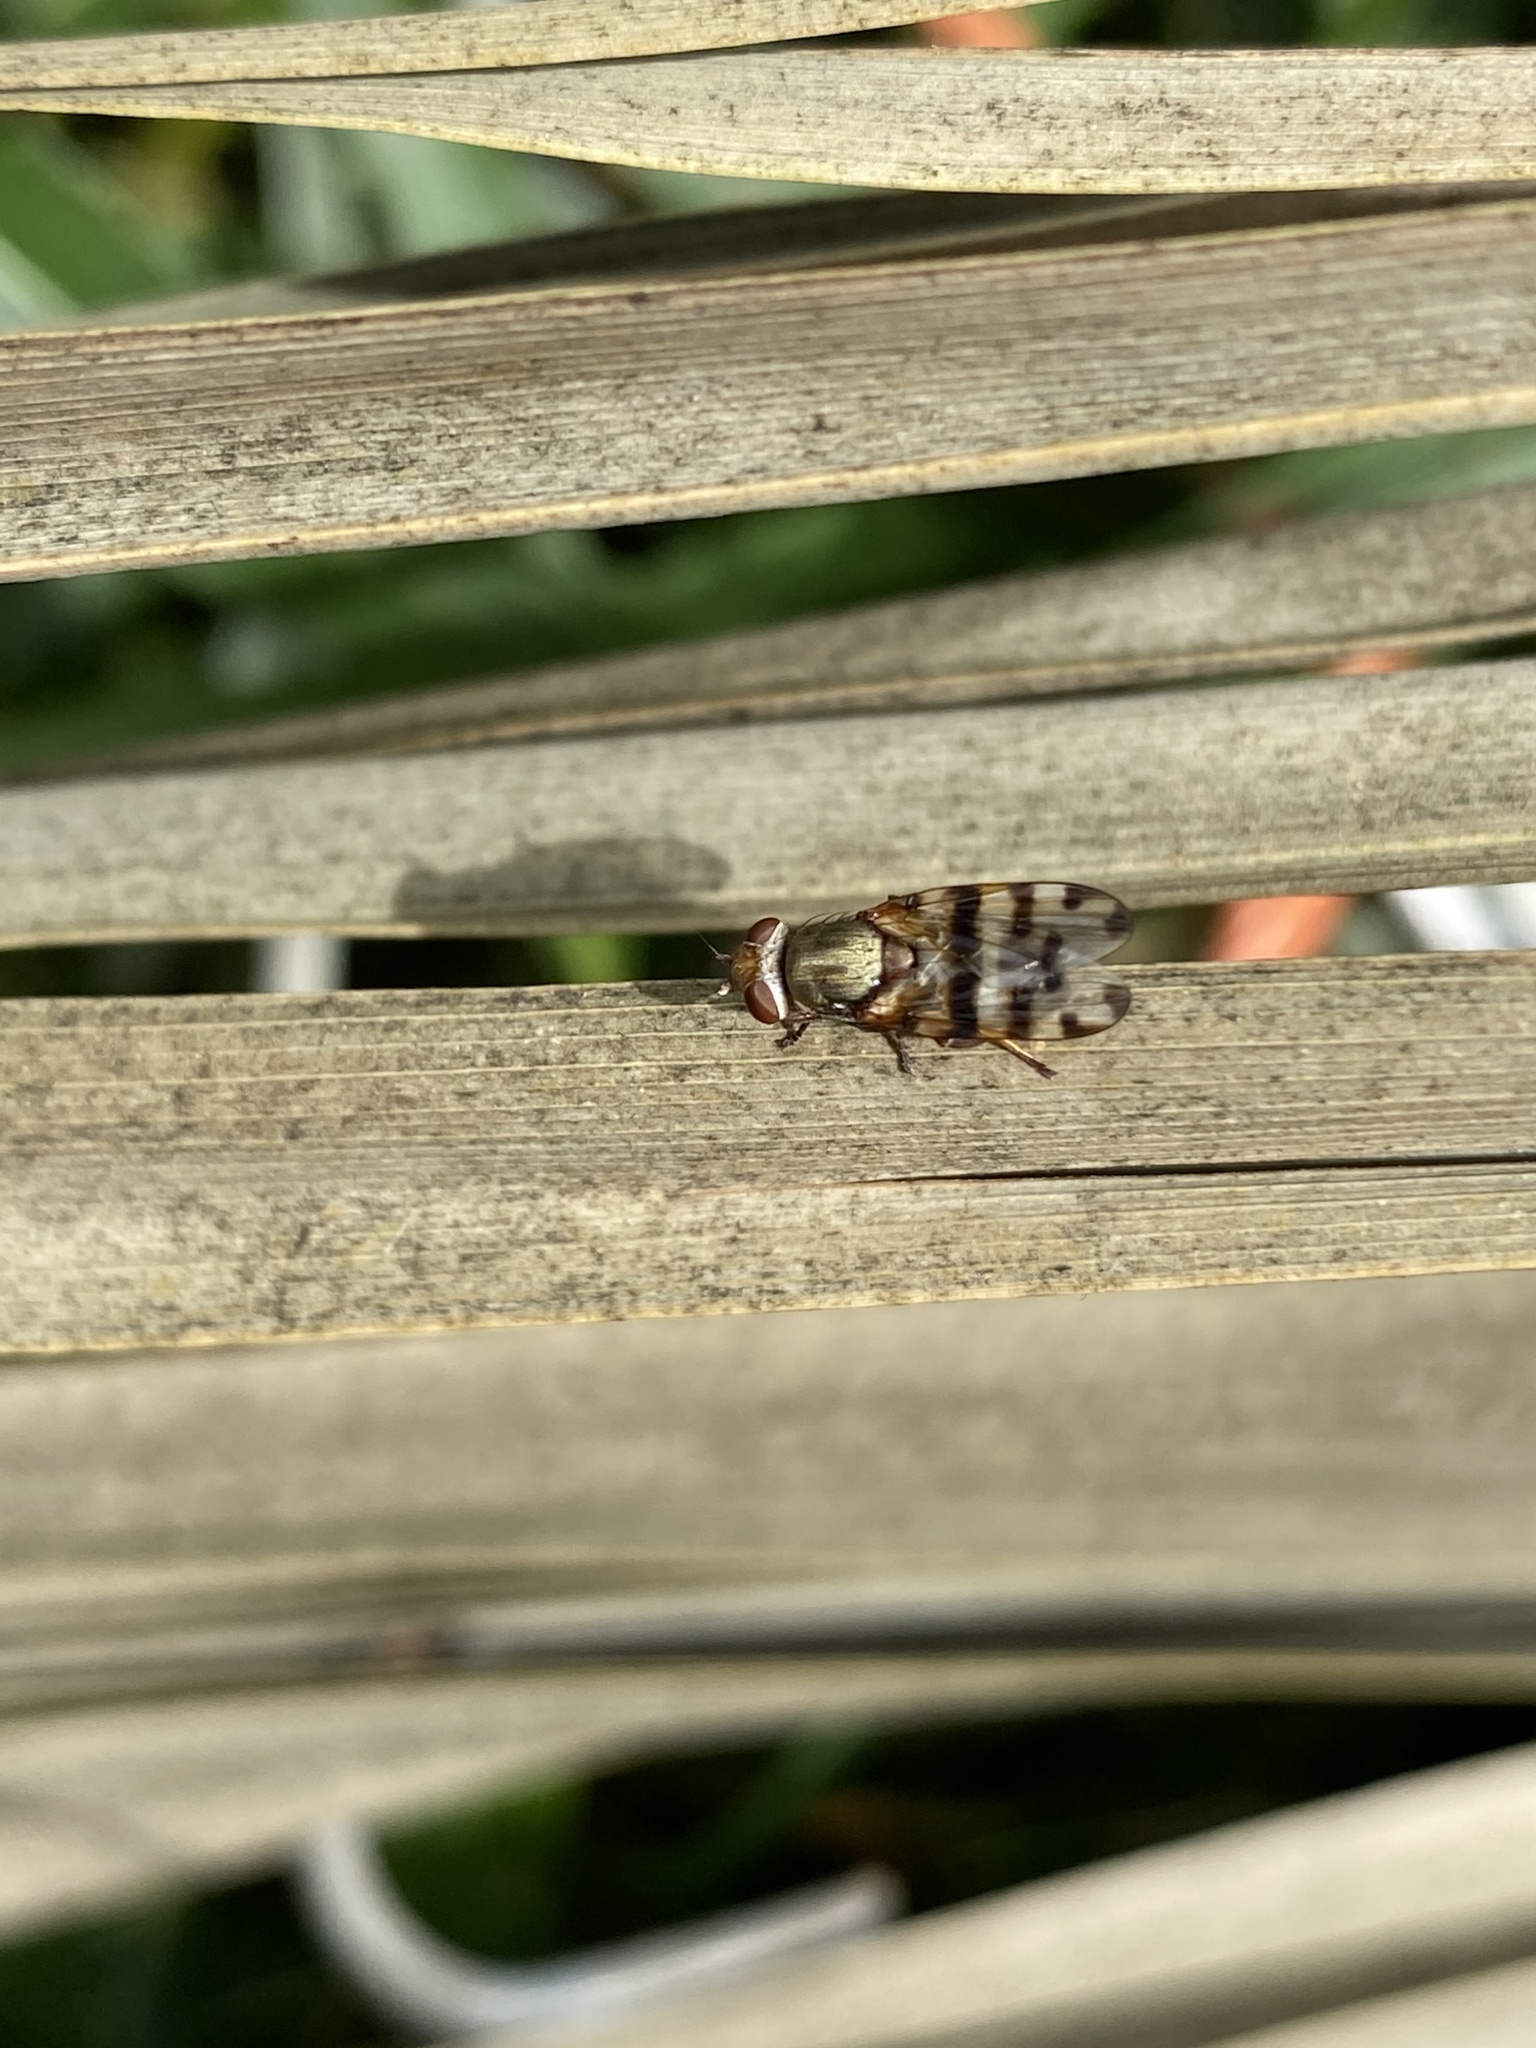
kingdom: Animalia
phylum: Arthropoda
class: Insecta
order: Diptera
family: Ulidiidae
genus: Ceroxys
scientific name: Ceroxys latiusculus
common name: Picture-winged fly
